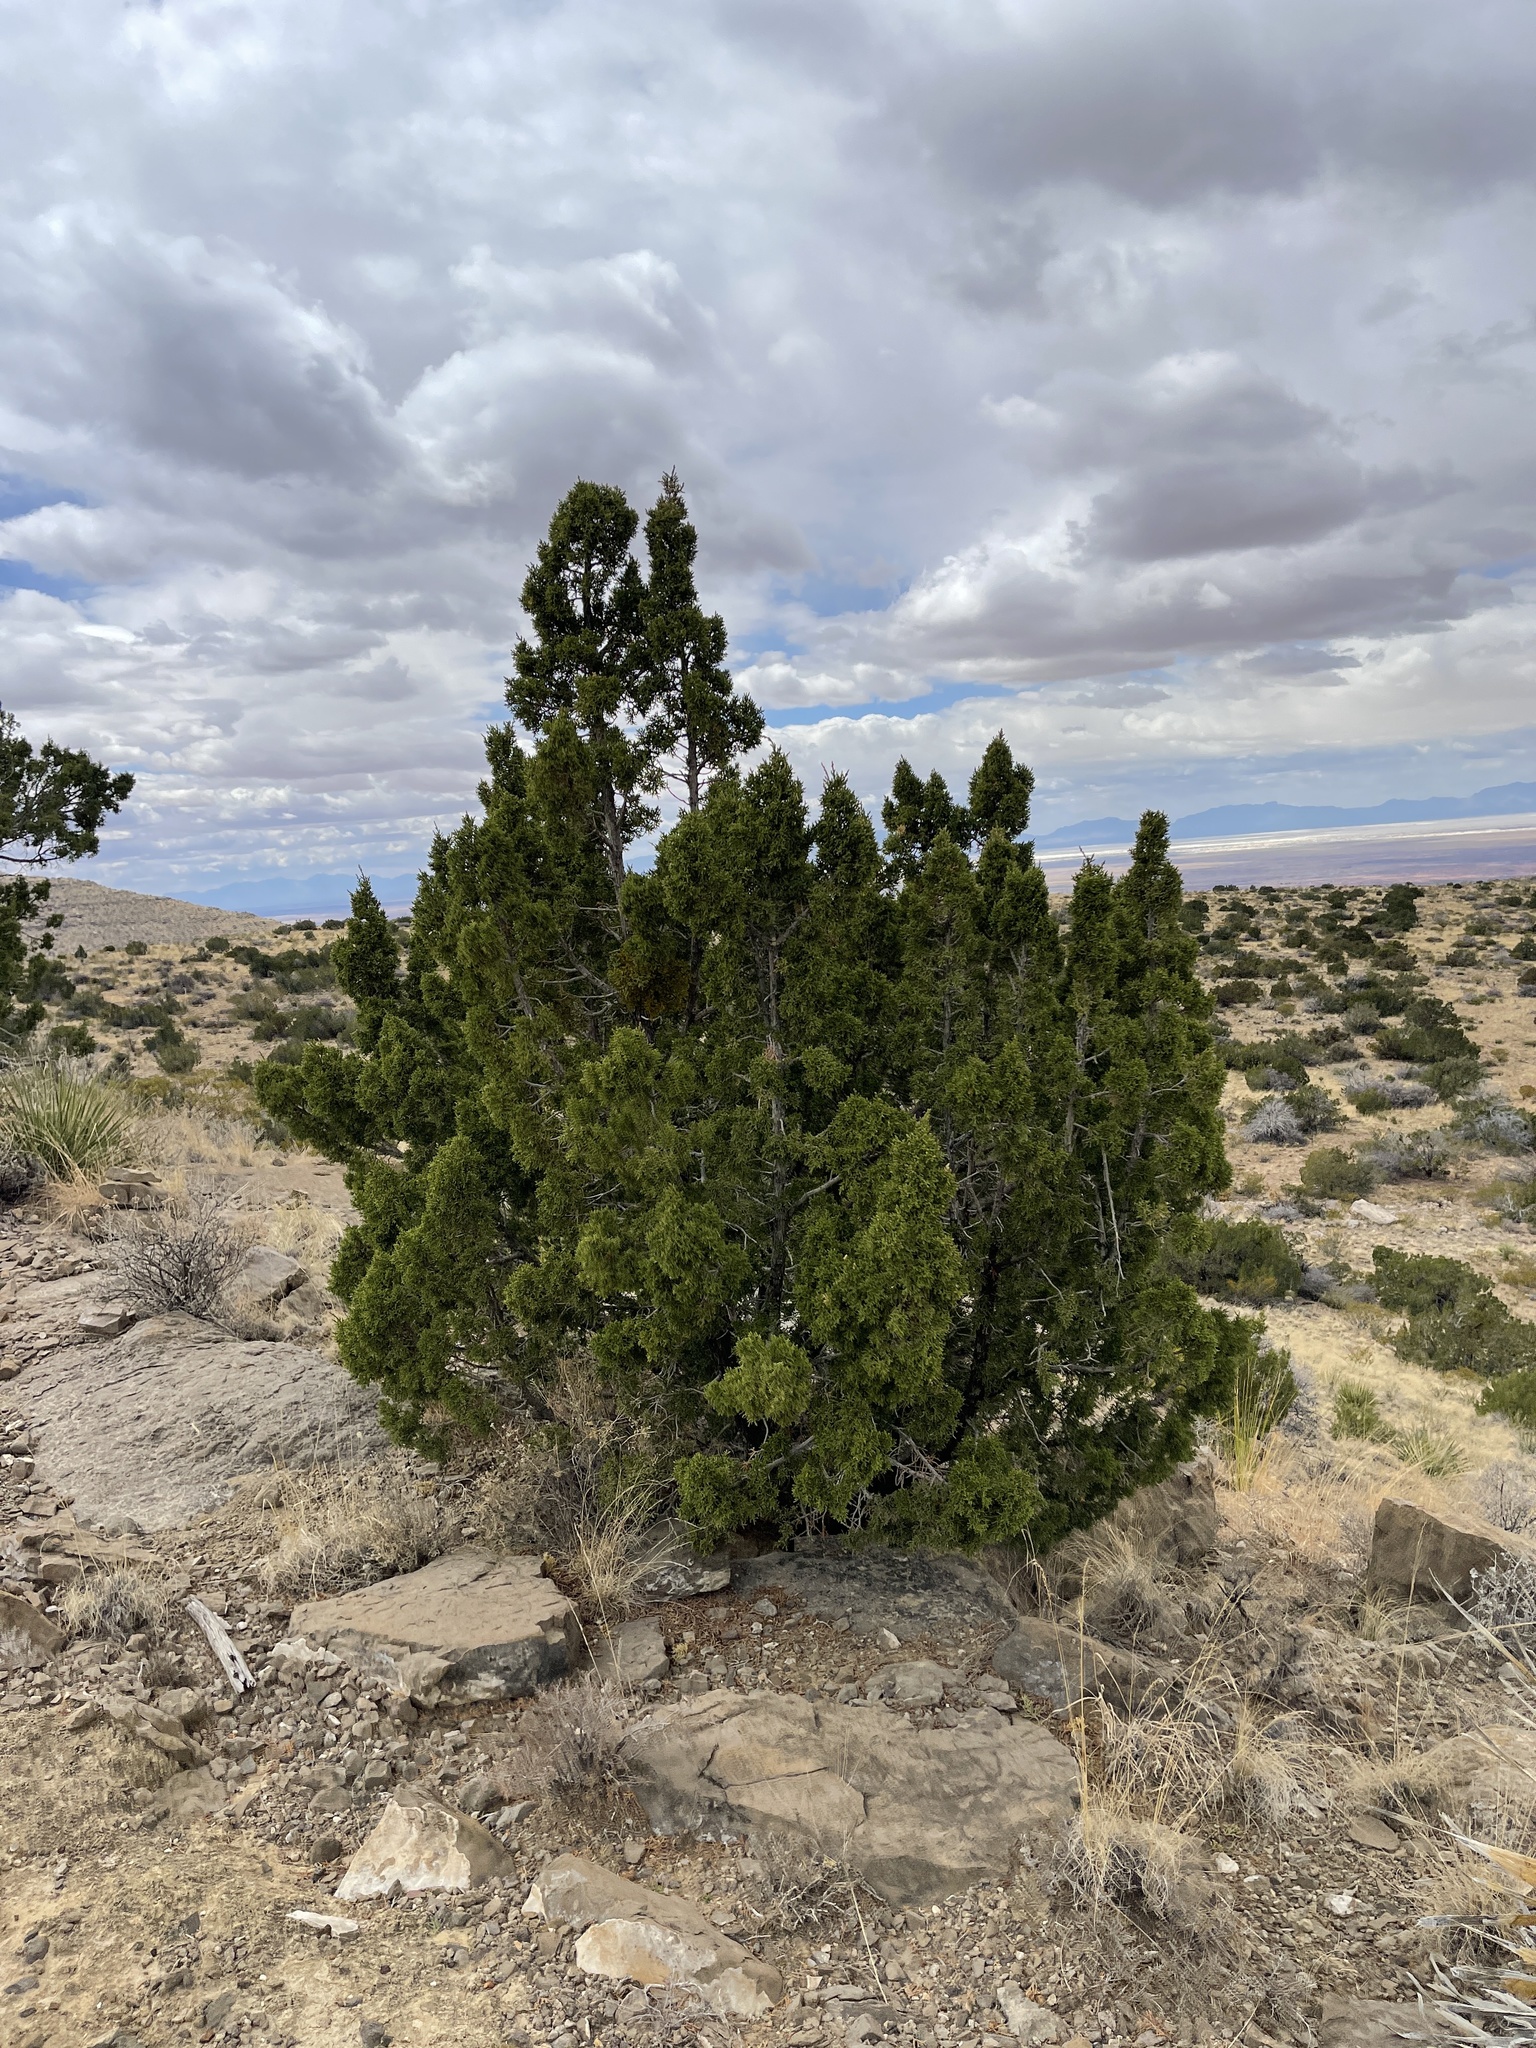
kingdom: Plantae
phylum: Tracheophyta
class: Pinopsida
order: Pinales
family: Cupressaceae
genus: Juniperus
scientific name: Juniperus monosperma
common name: One-seed juniper
